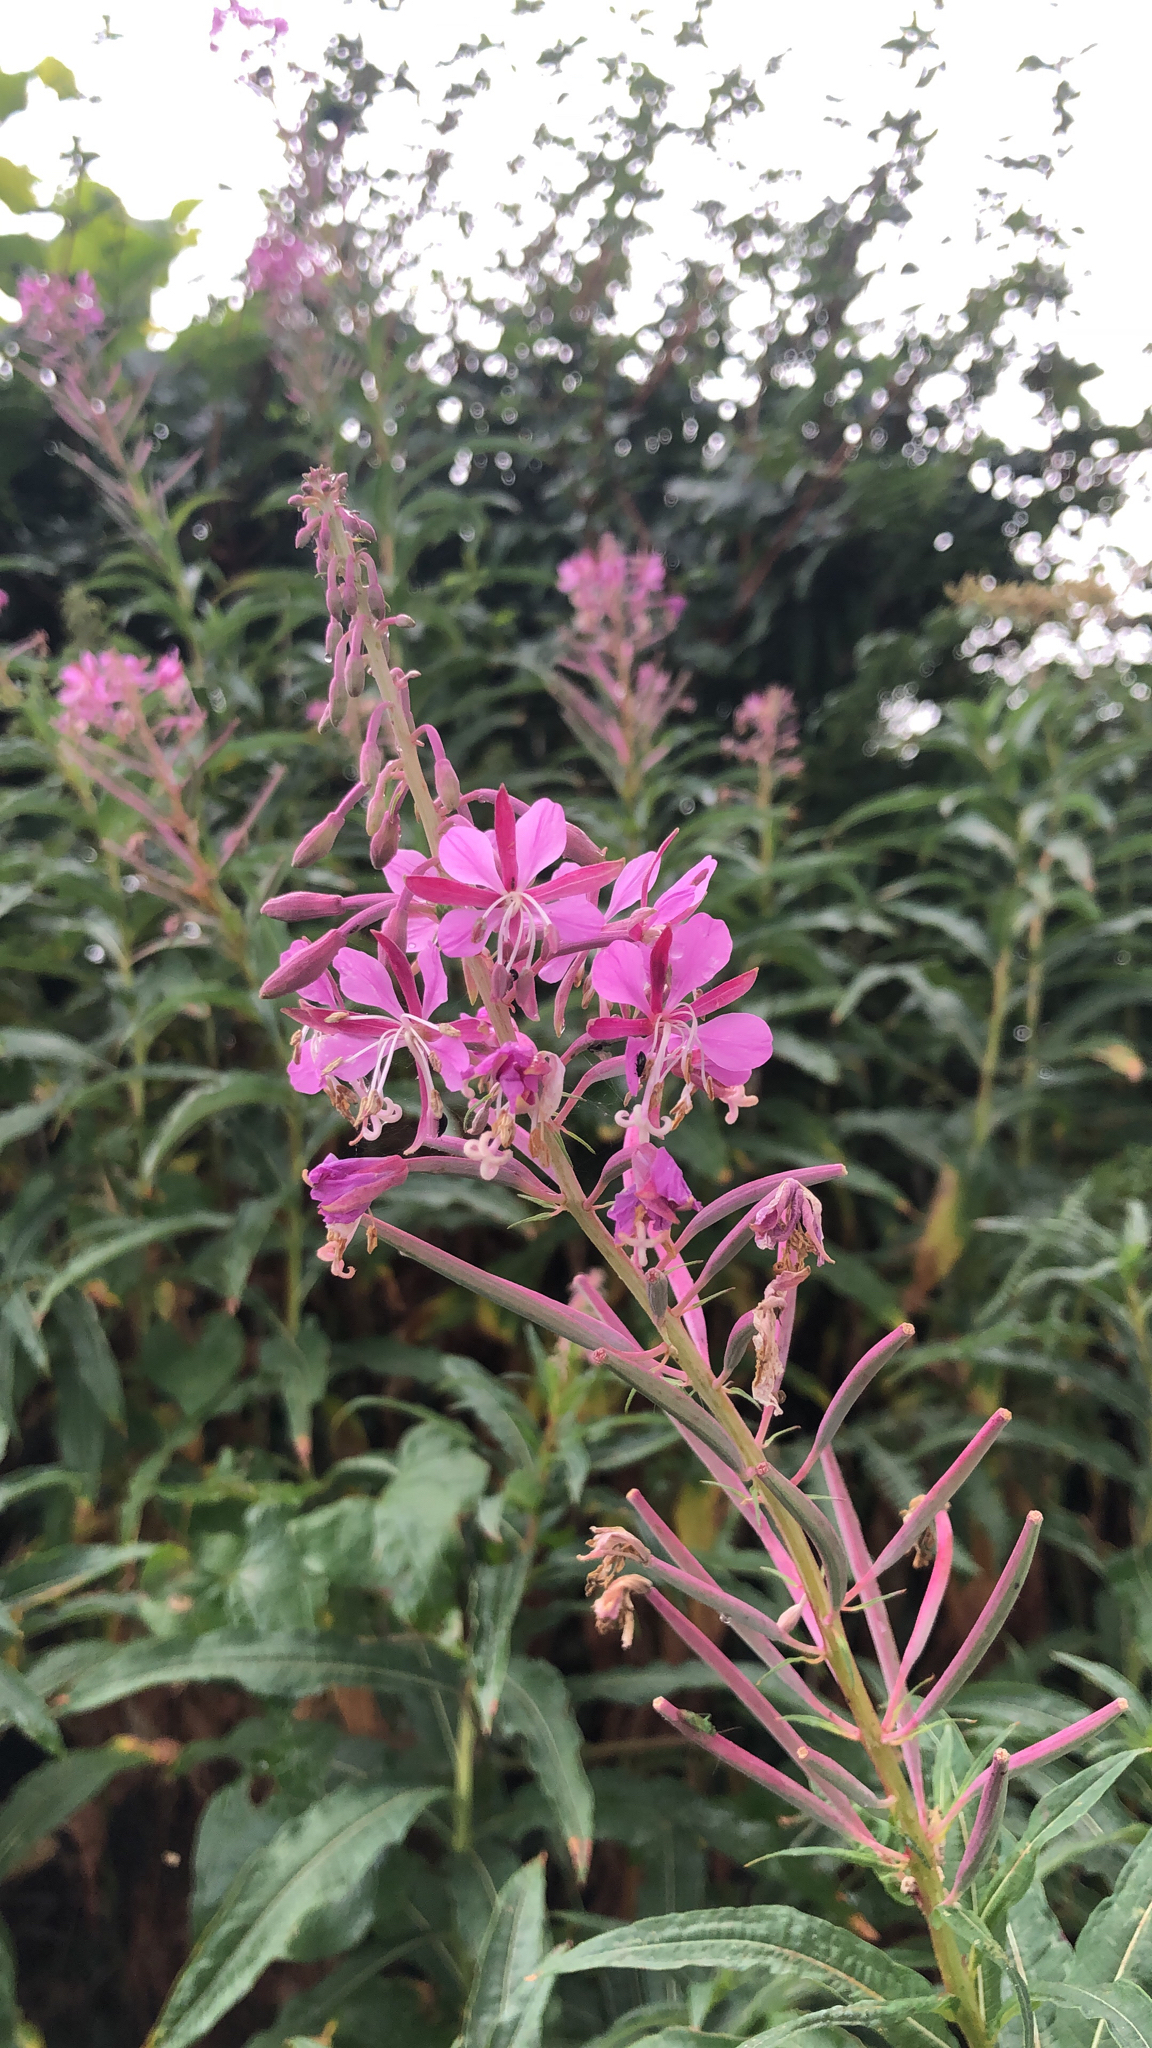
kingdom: Plantae
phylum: Tracheophyta
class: Magnoliopsida
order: Myrtales
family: Onagraceae
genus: Chamaenerion
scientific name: Chamaenerion angustifolium
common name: Fireweed
